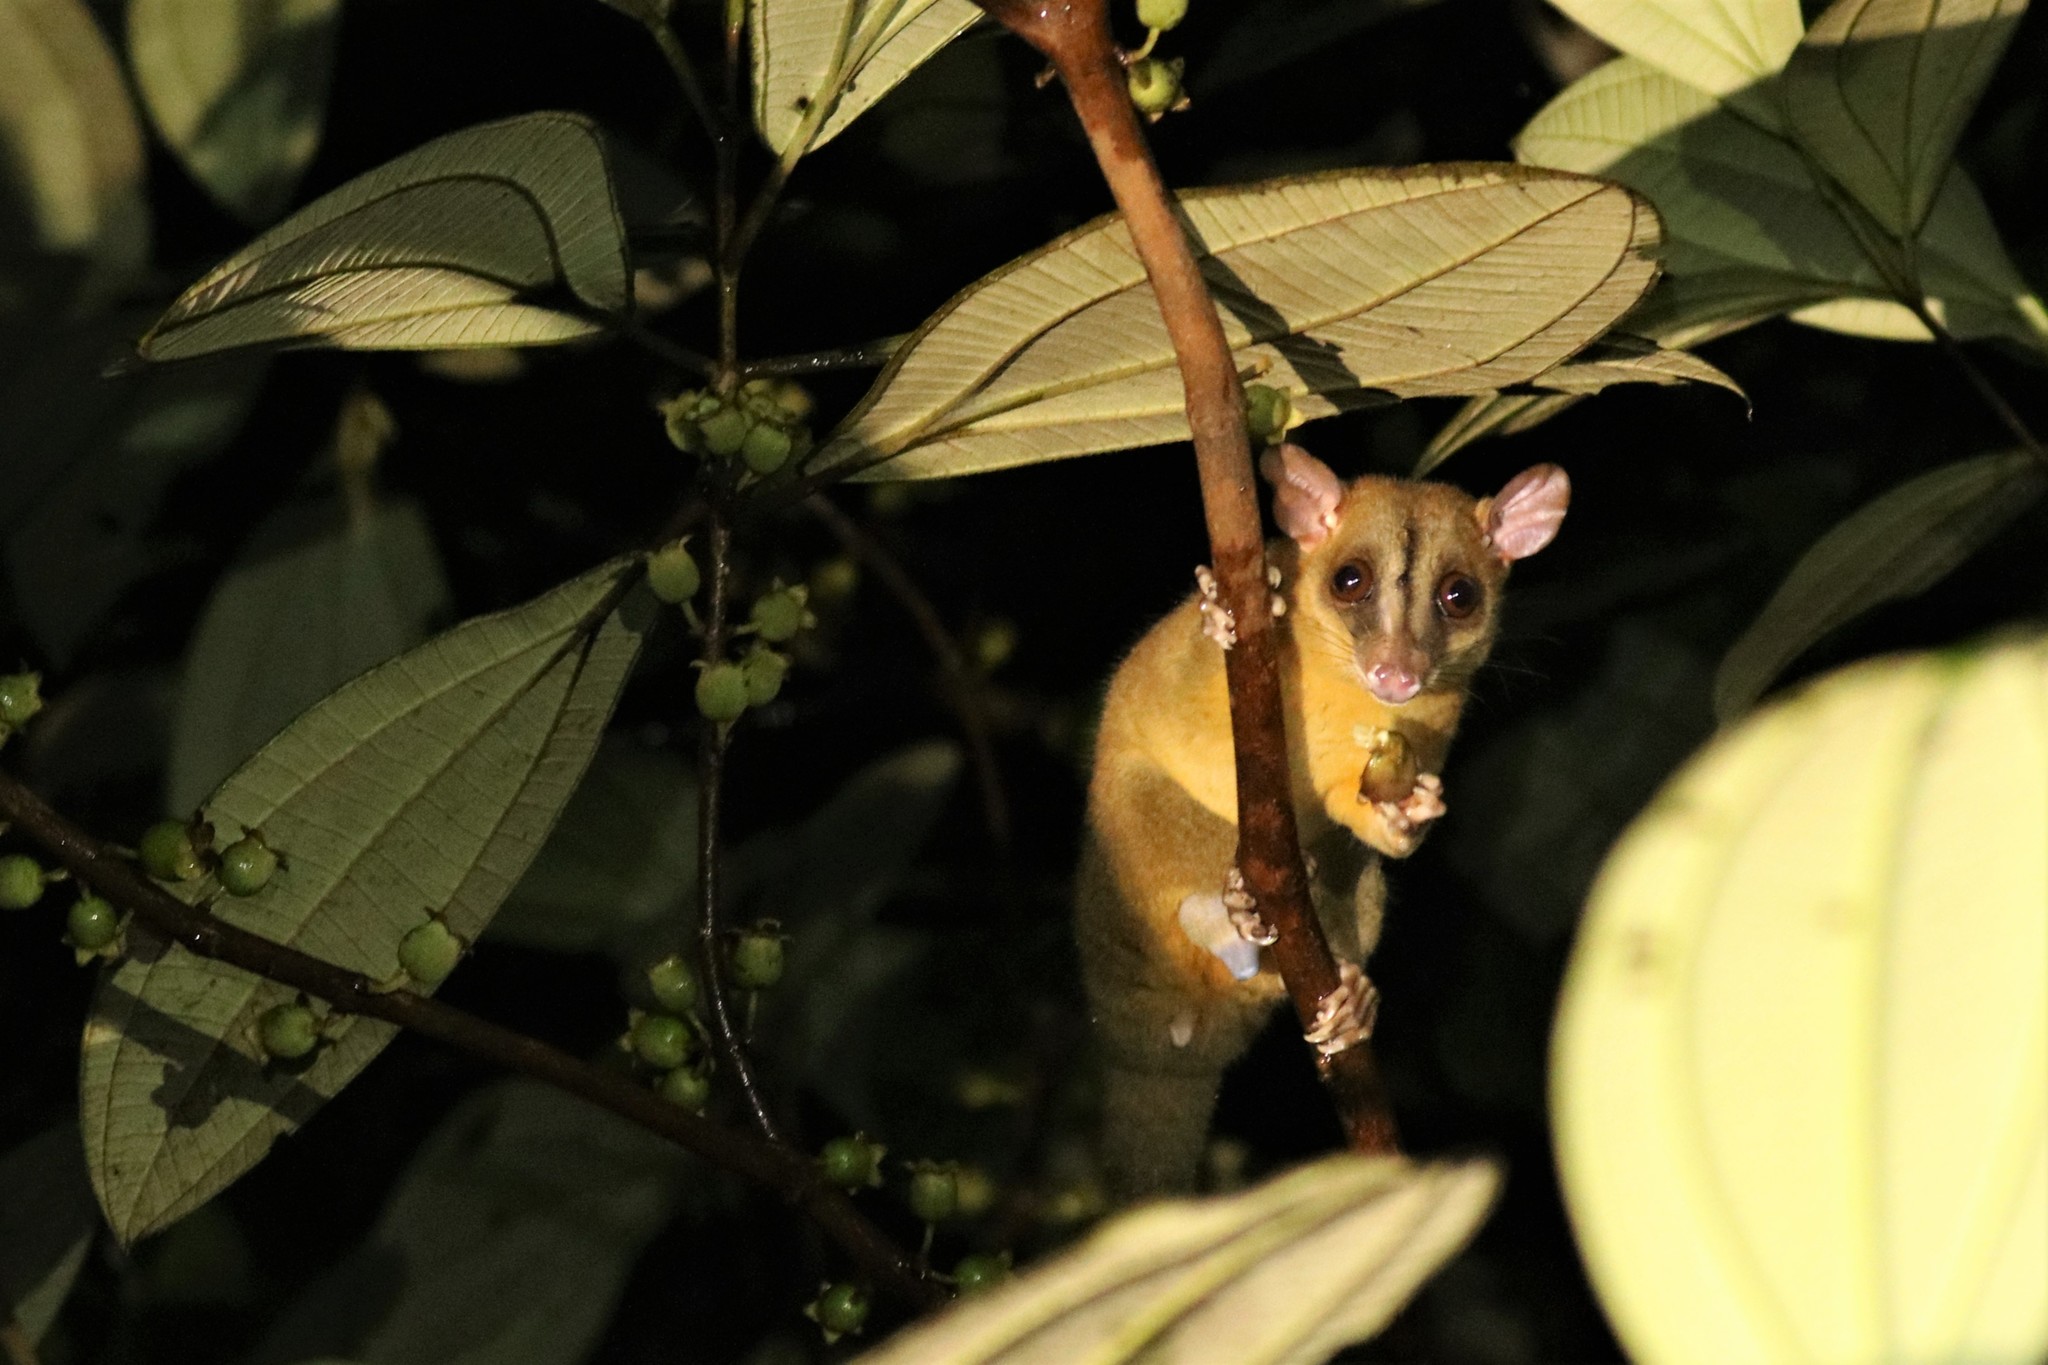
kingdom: Animalia
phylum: Chordata
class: Mammalia
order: Didelphimorphia
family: Didelphidae
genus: Caluromys
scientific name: Caluromys philander
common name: Bare-tailed woolly opossum
